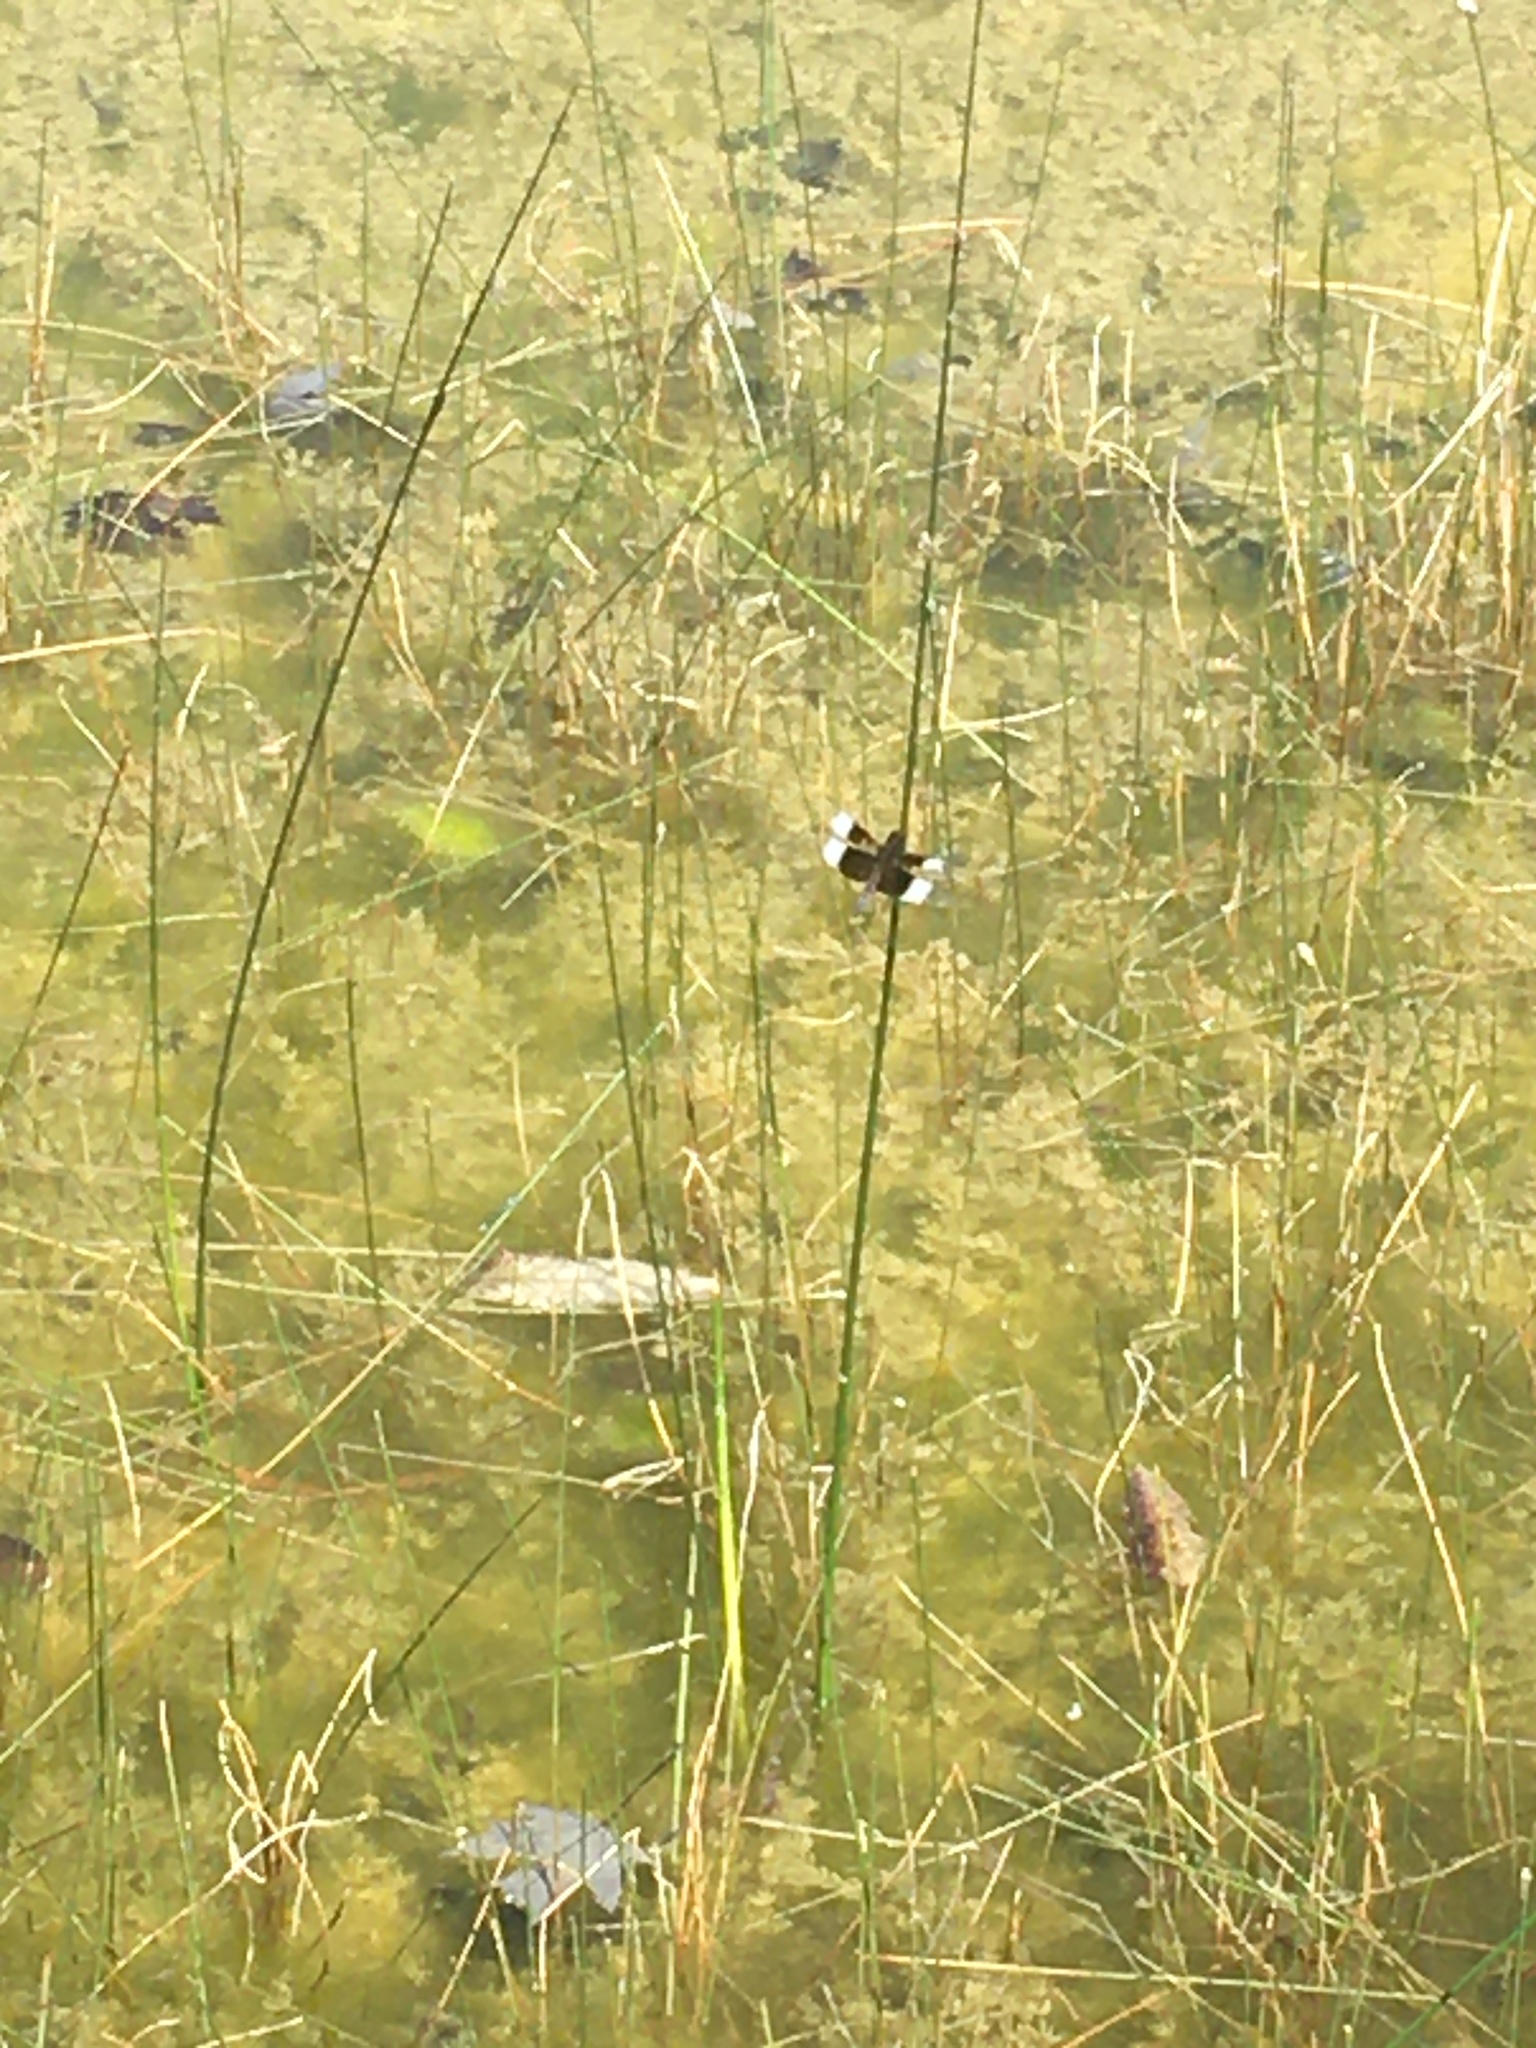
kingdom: Animalia
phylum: Arthropoda
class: Insecta
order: Odonata
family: Libellulidae
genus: Libellula
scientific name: Libellula luctuosa
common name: Widow skimmer
